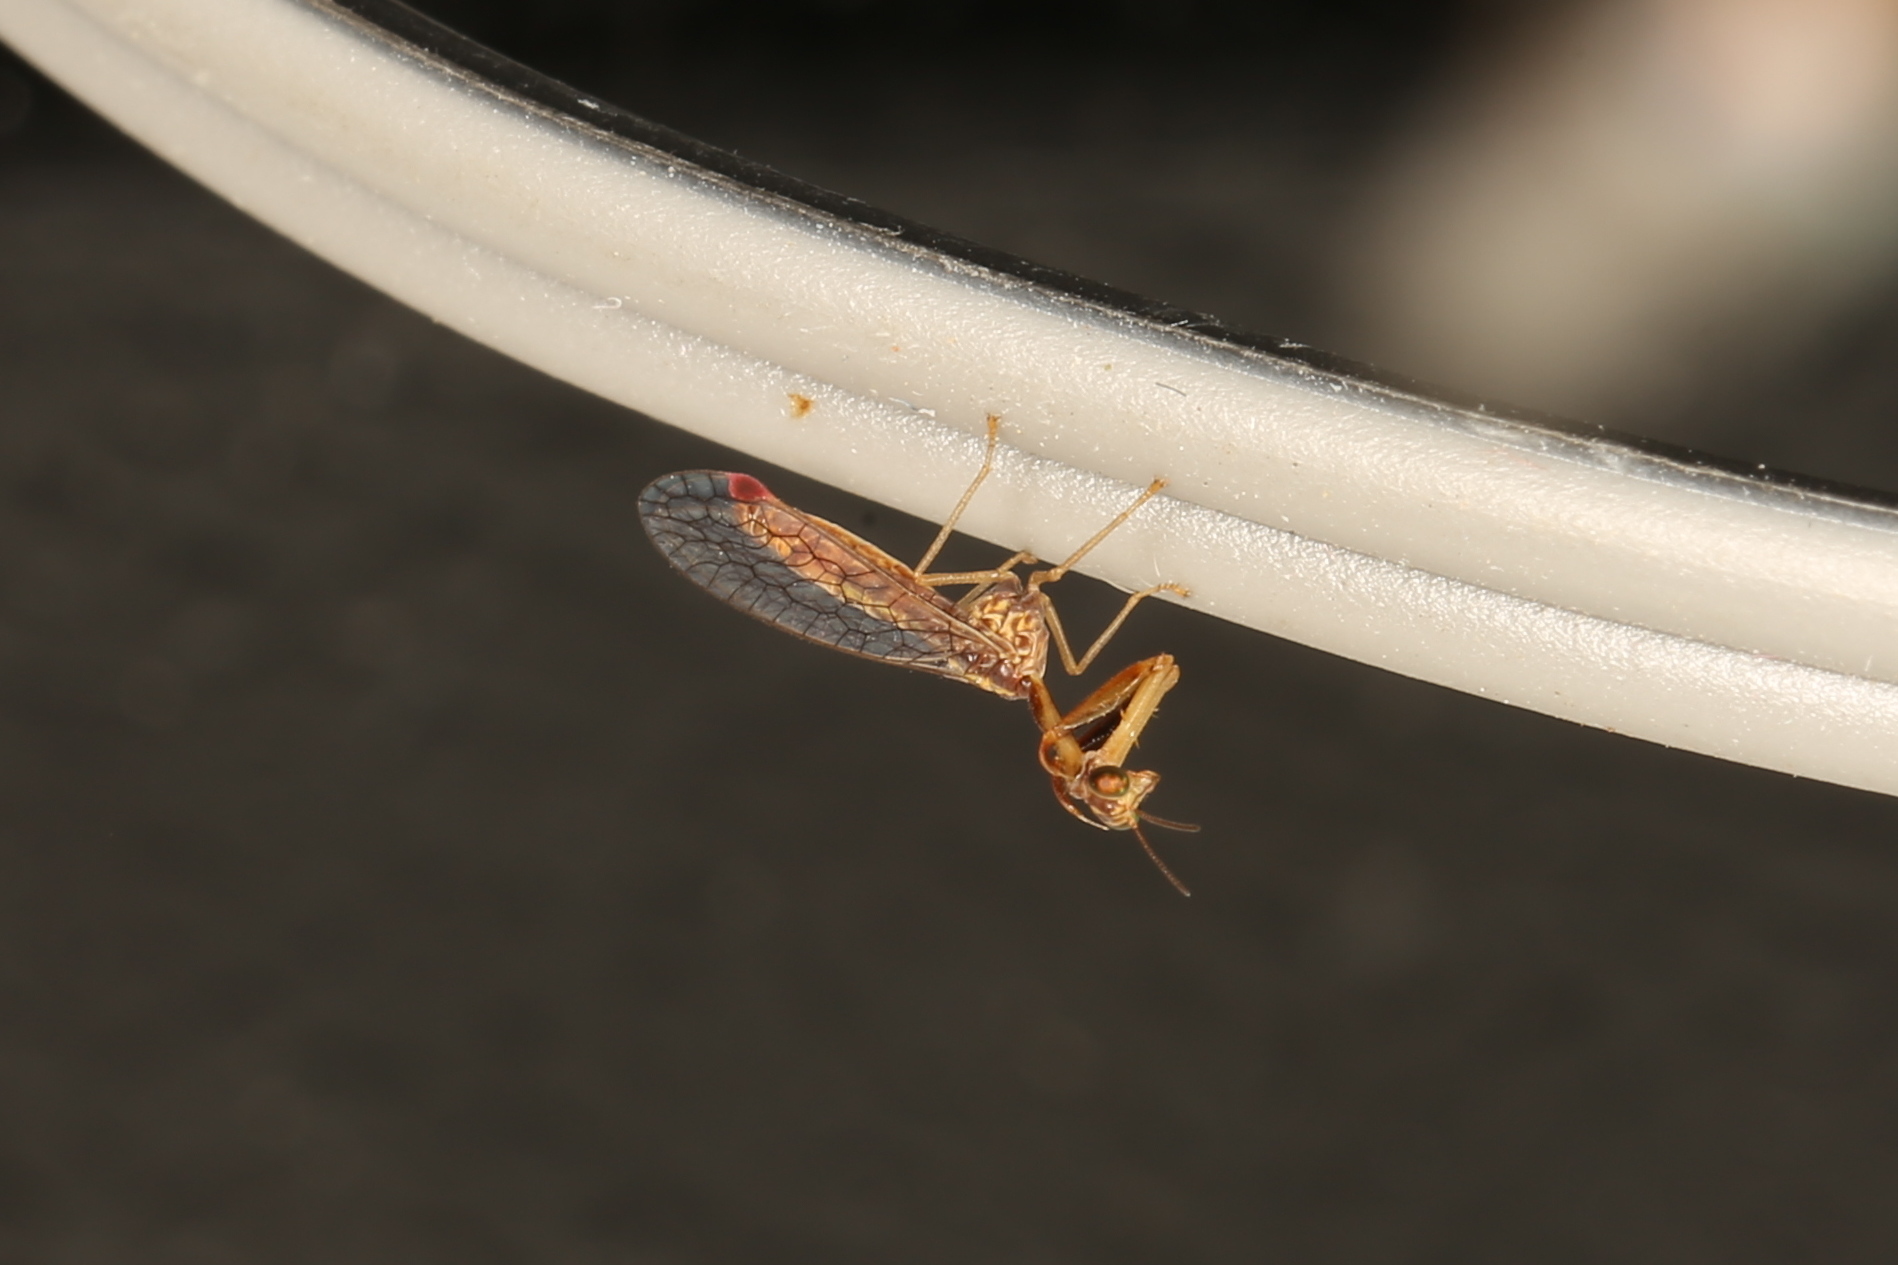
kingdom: Animalia
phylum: Arthropoda
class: Insecta
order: Neuroptera
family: Mantispidae
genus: Austromantispa
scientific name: Austromantispa trevori
